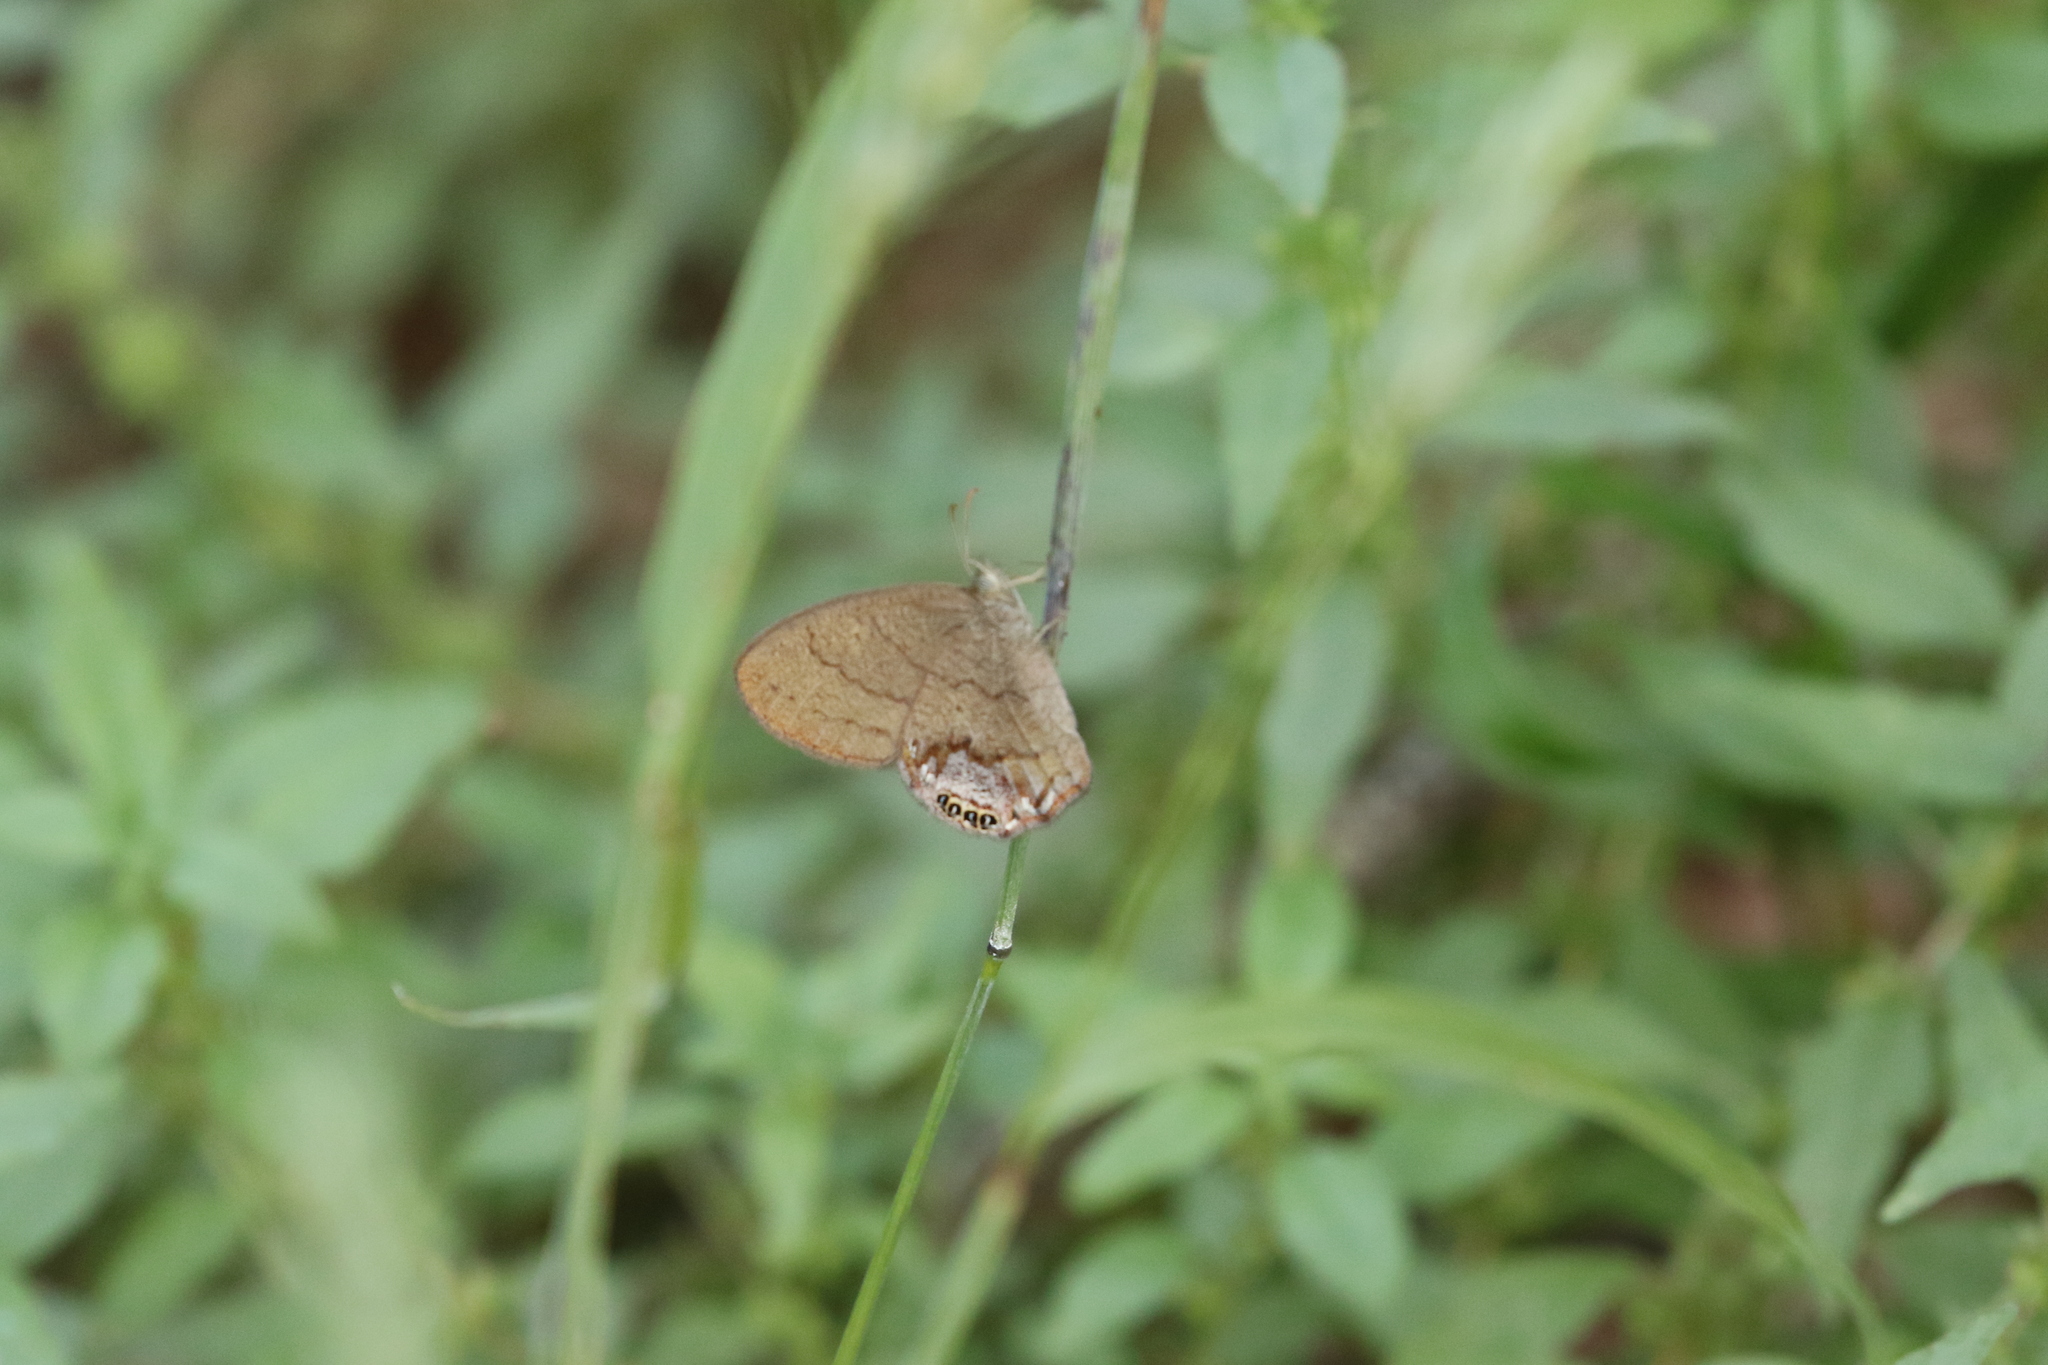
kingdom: Animalia
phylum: Arthropoda
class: Insecta
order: Lepidoptera
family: Nymphalidae
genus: Euptychia
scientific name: Euptychia cornelius
